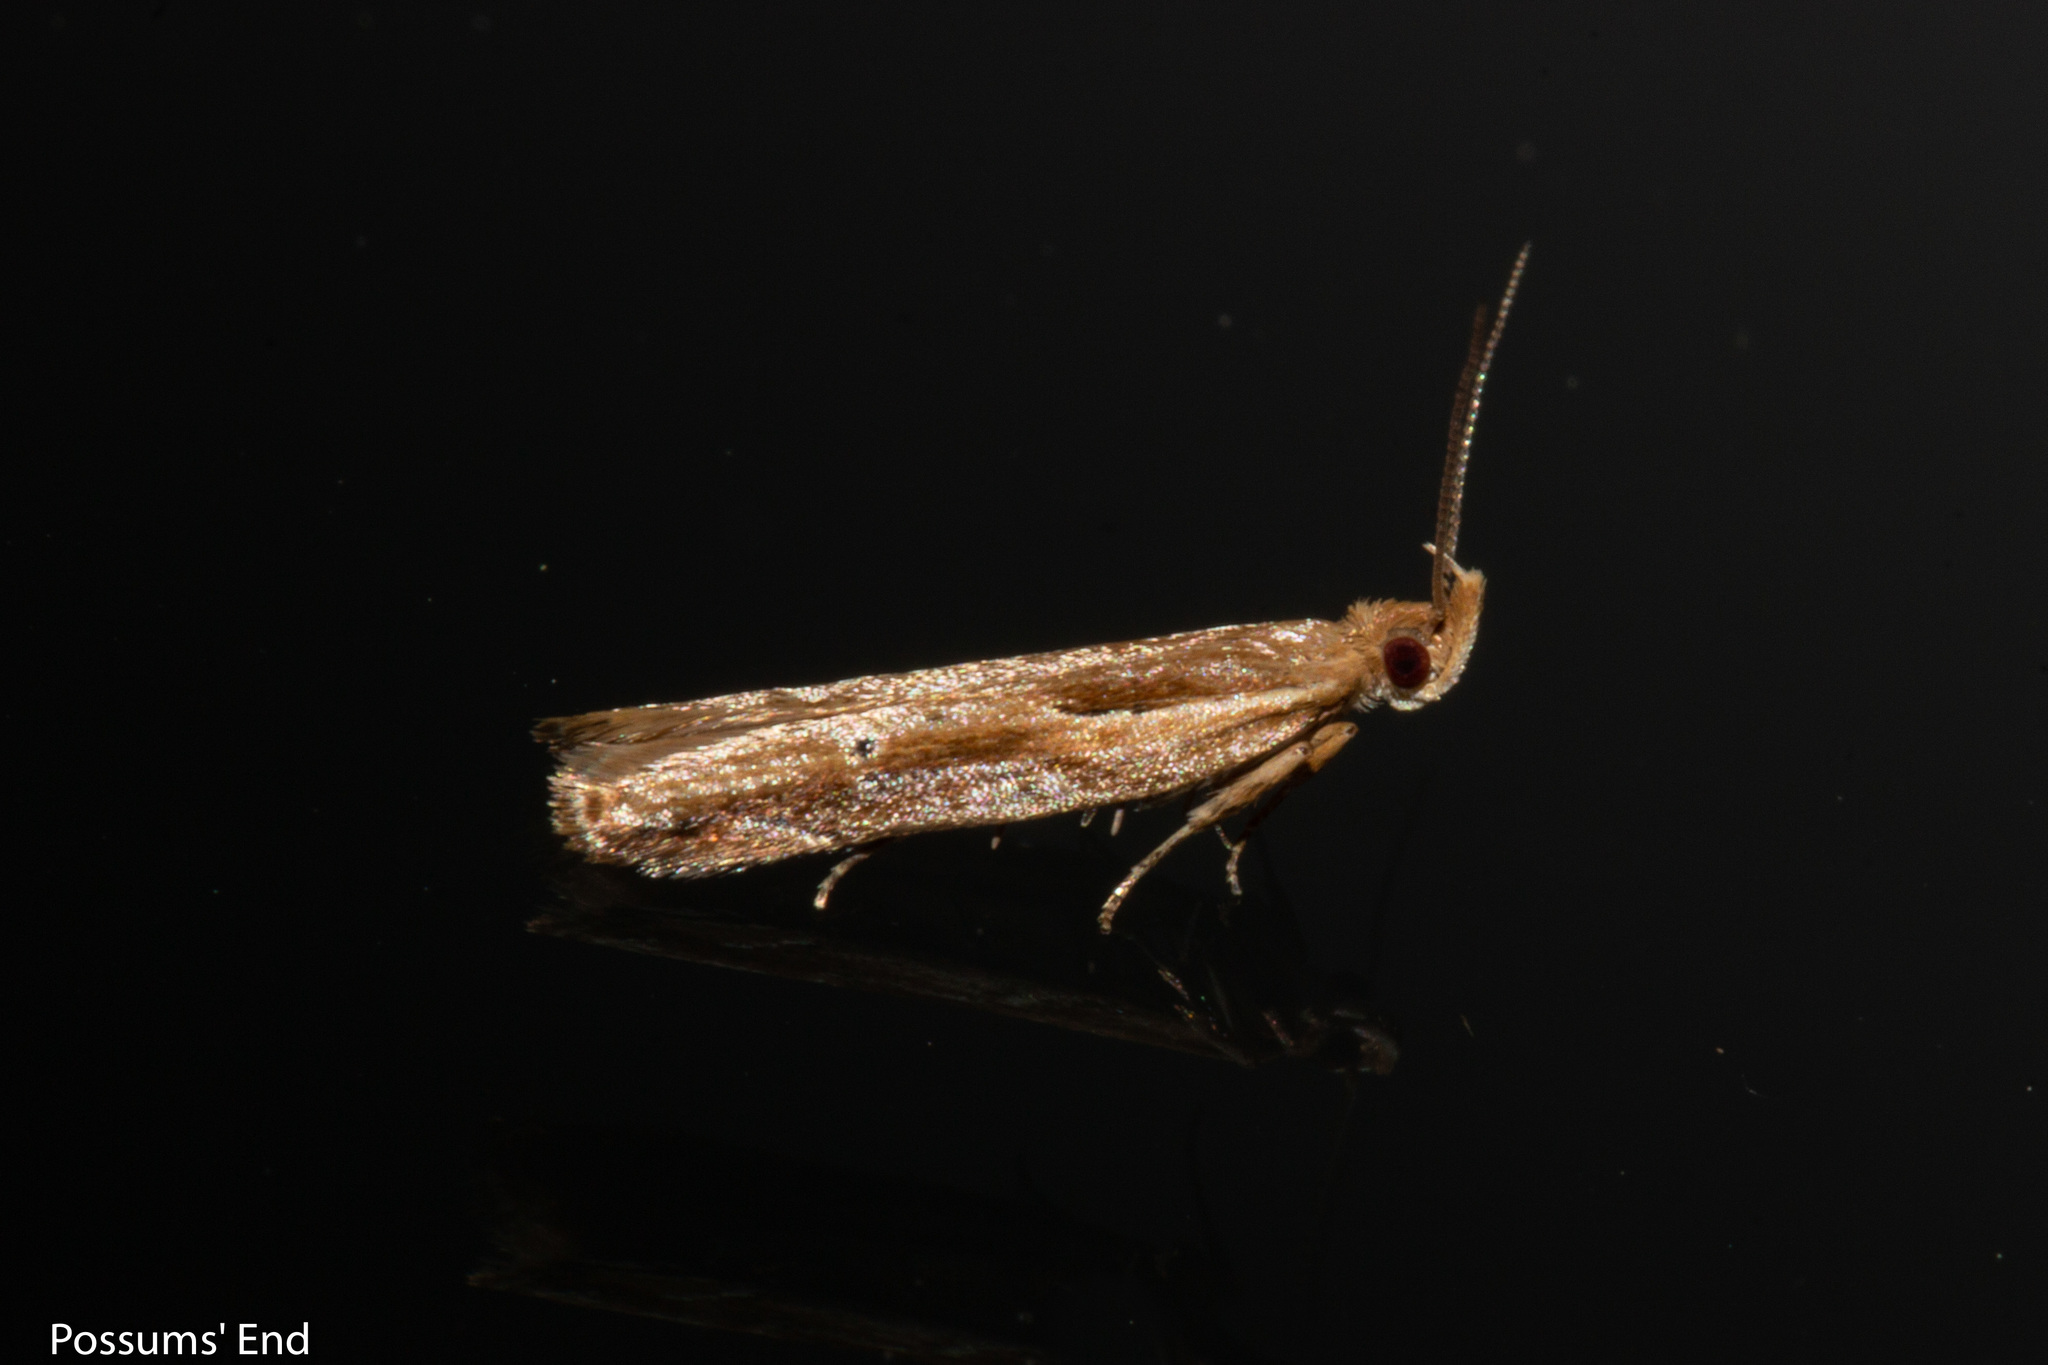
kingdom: Animalia
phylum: Arthropoda
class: Insecta
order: Lepidoptera
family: Depressariidae
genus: Eutorna
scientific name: Eutorna symmorpha
